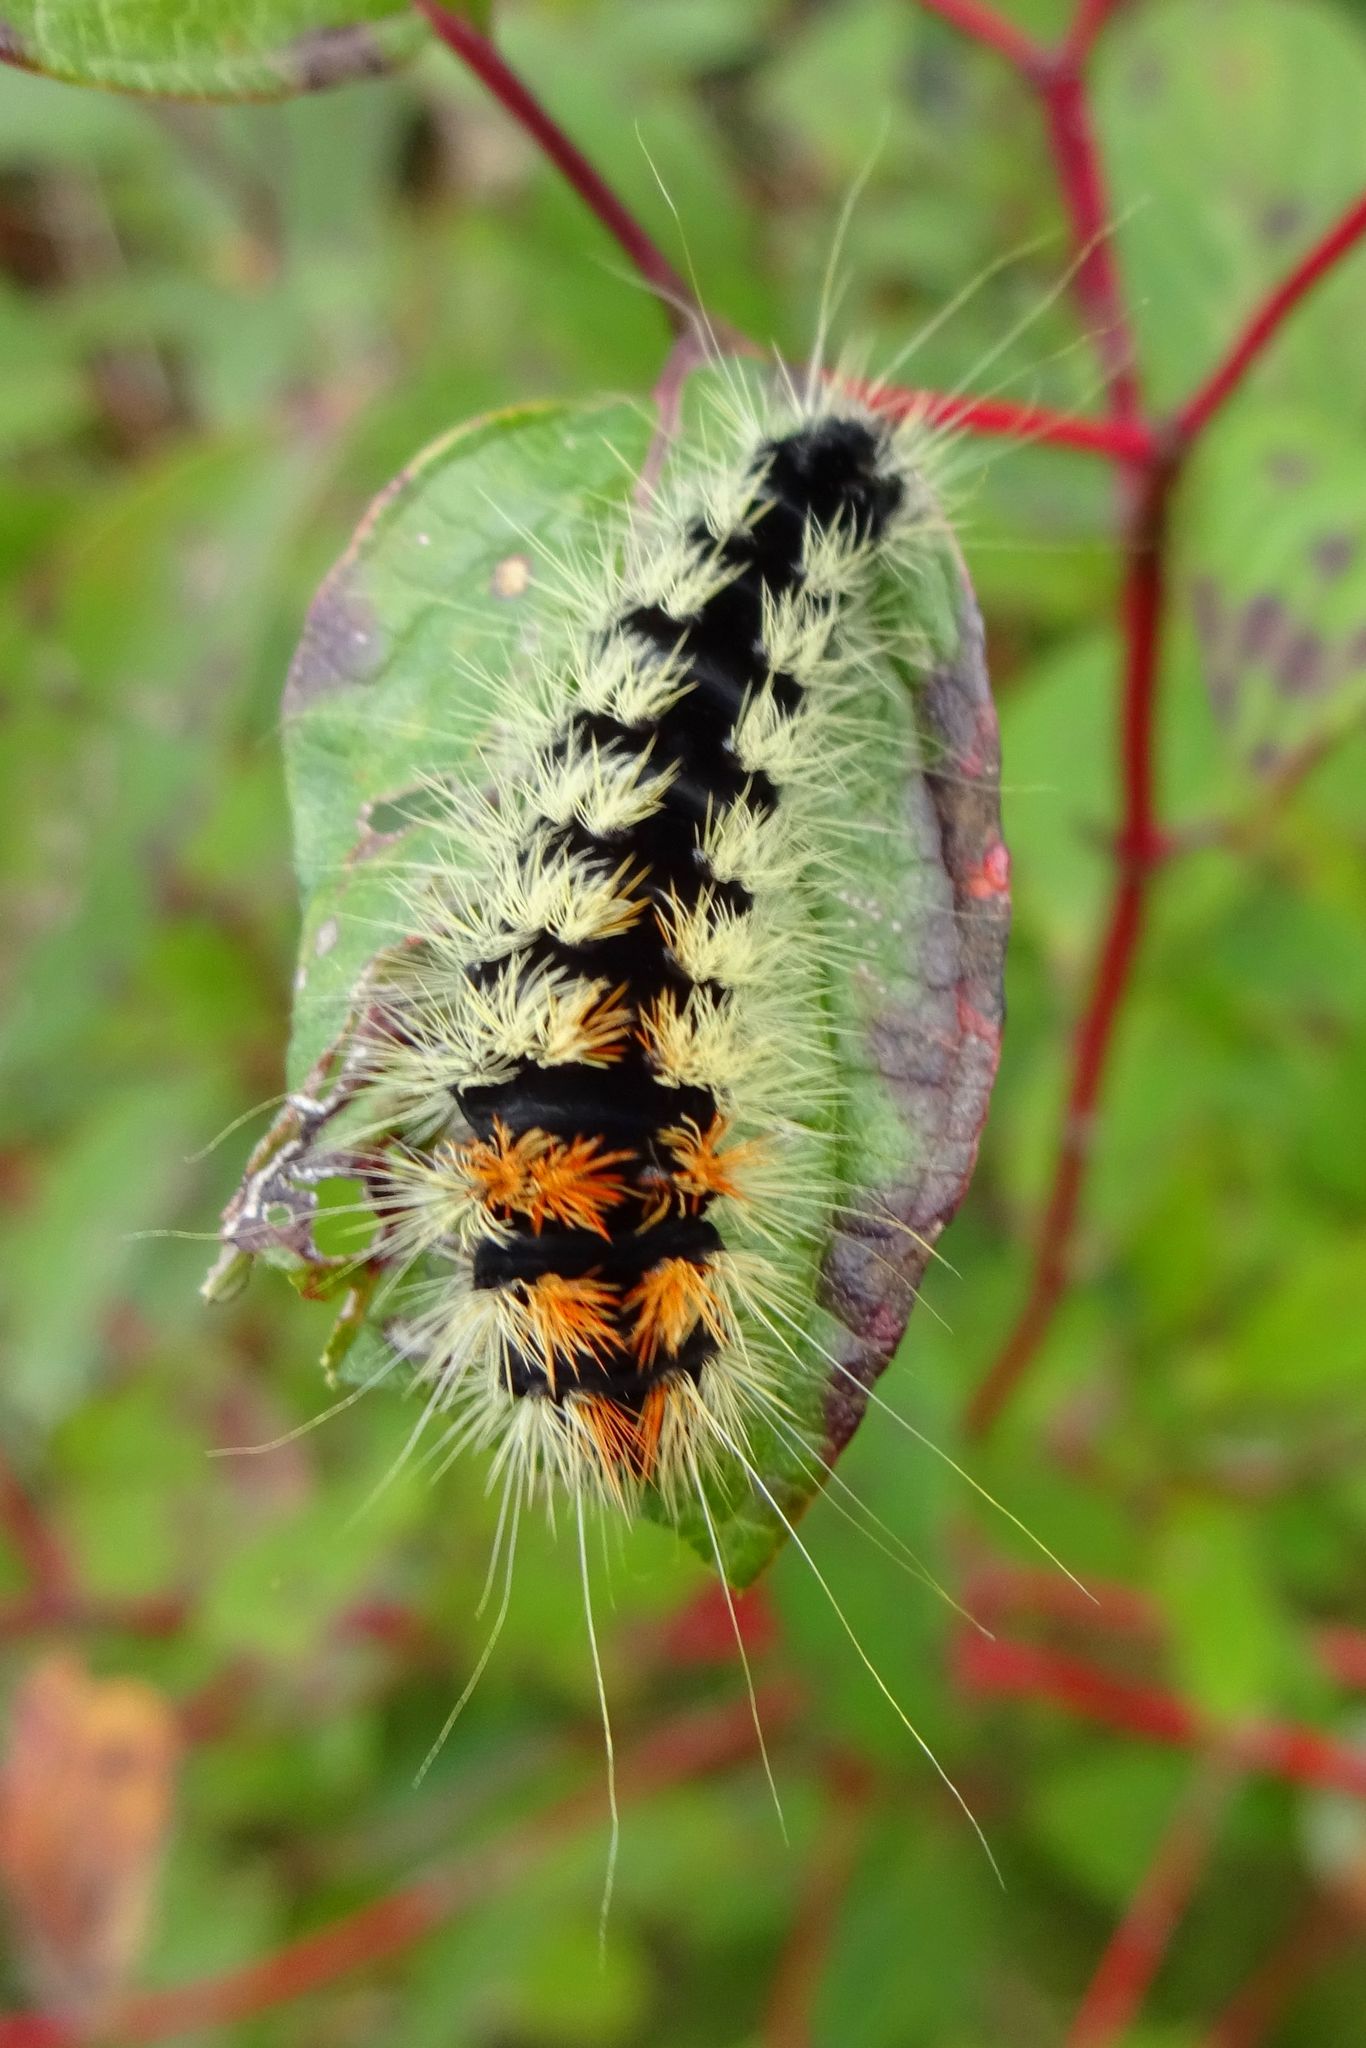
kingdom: Animalia
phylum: Arthropoda
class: Insecta
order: Lepidoptera
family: Noctuidae
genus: Acronicta
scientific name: Acronicta impressa
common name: Impressed dagger
